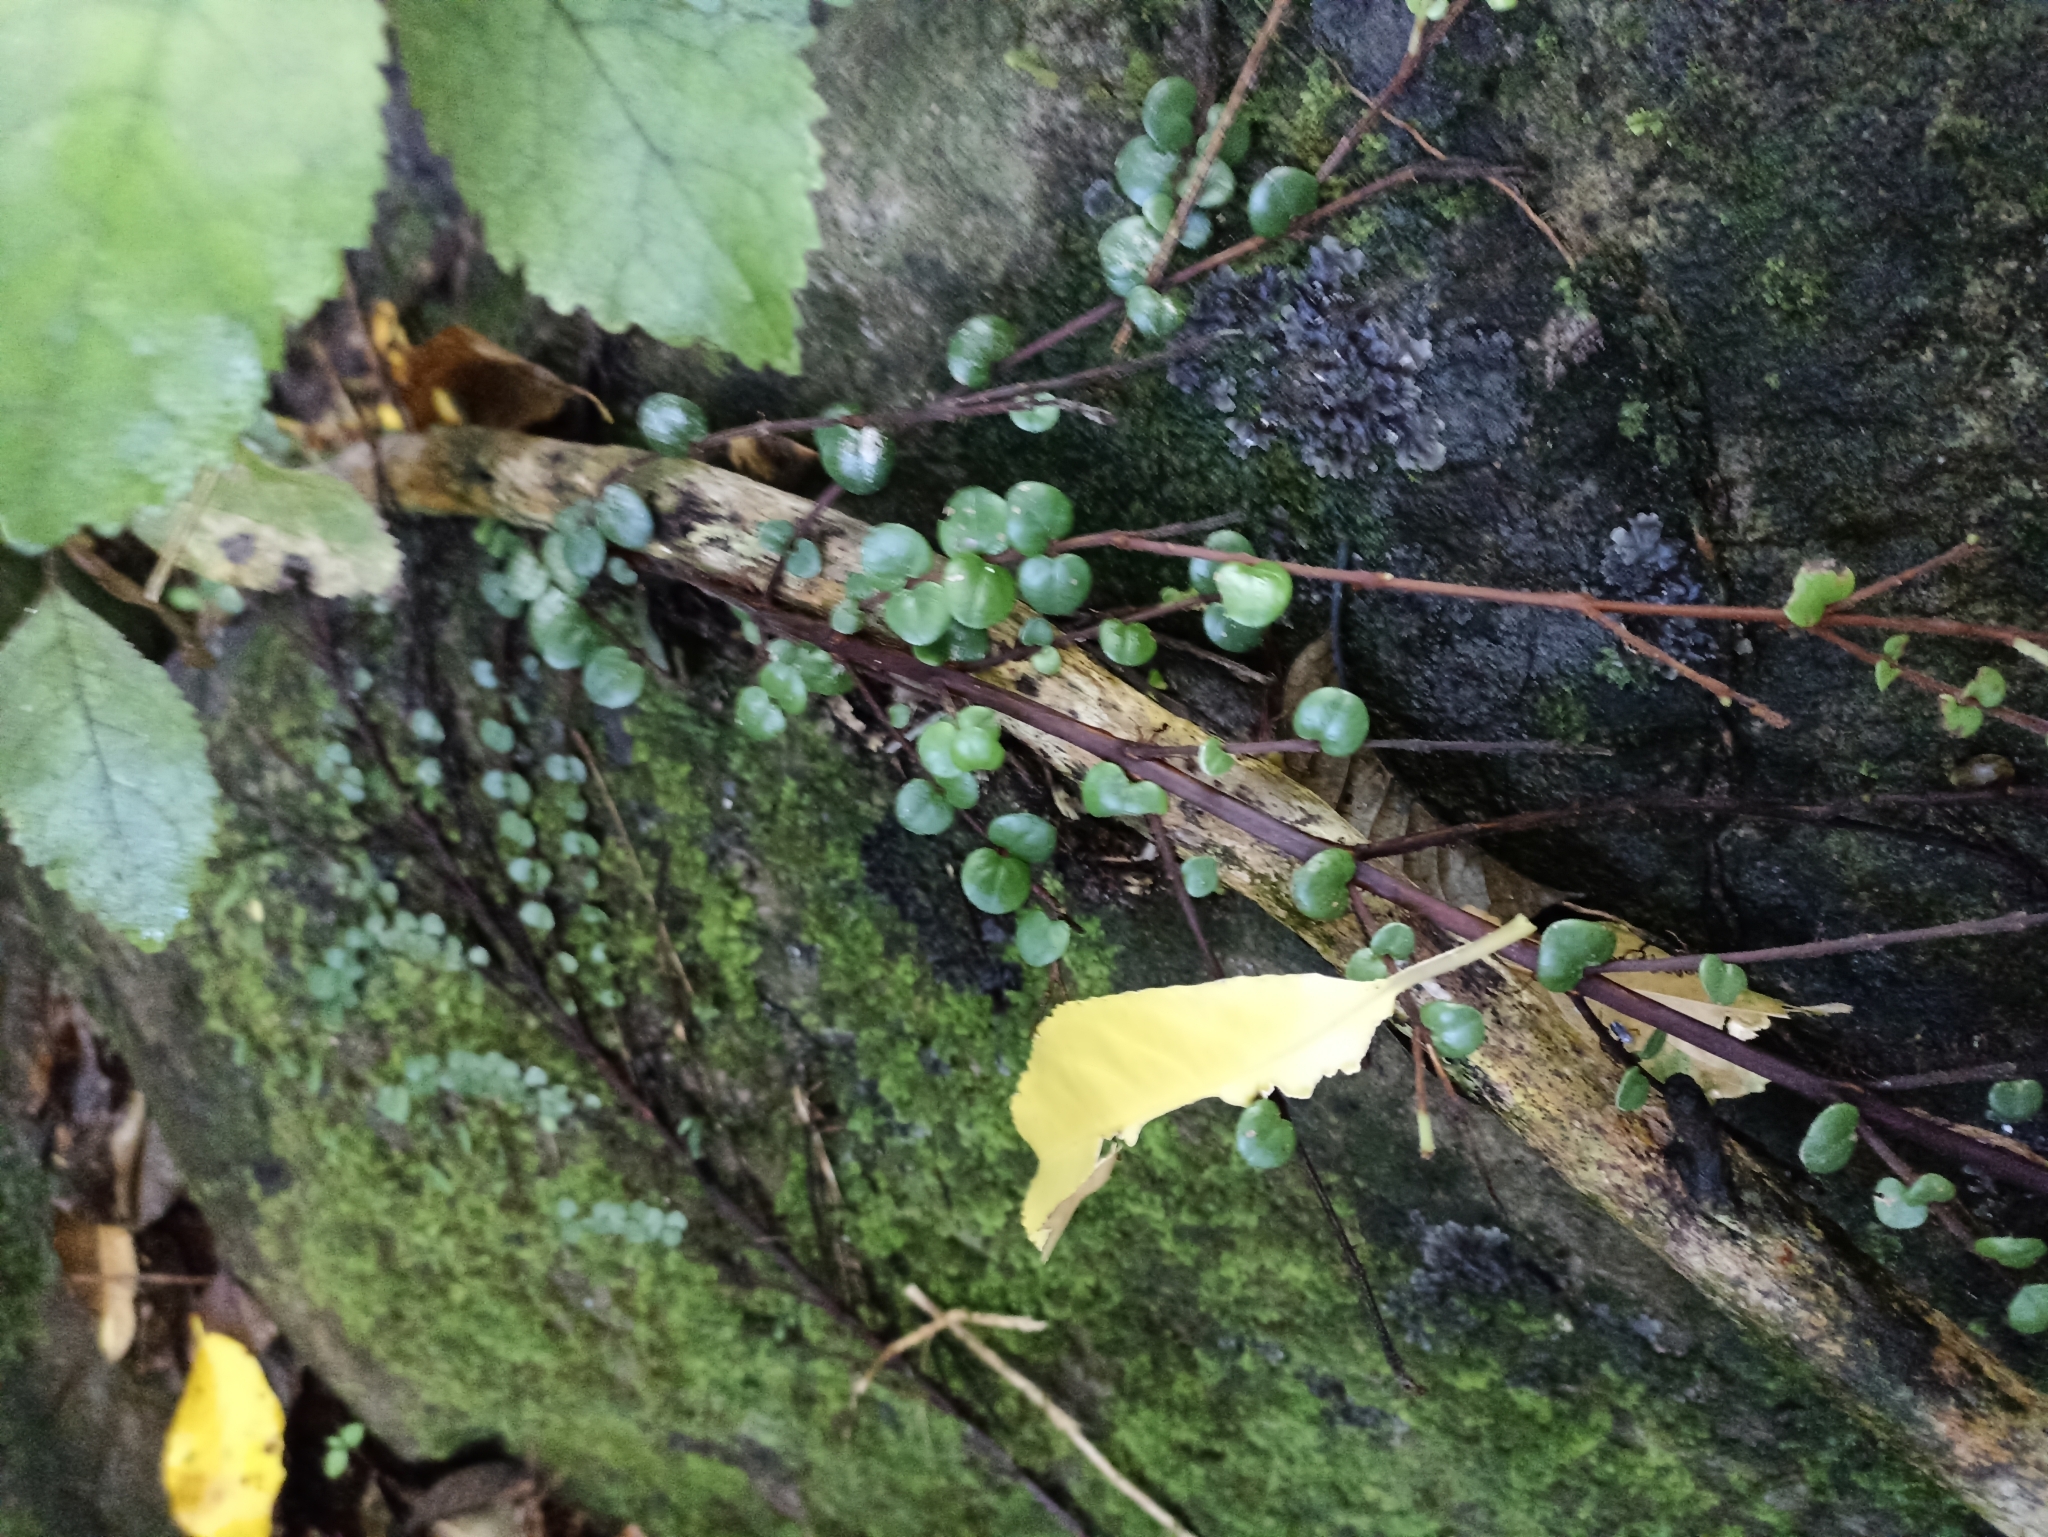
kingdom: Plantae
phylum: Tracheophyta
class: Magnoliopsida
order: Myrtales
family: Myrtaceae
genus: Metrosideros
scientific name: Metrosideros perforata
